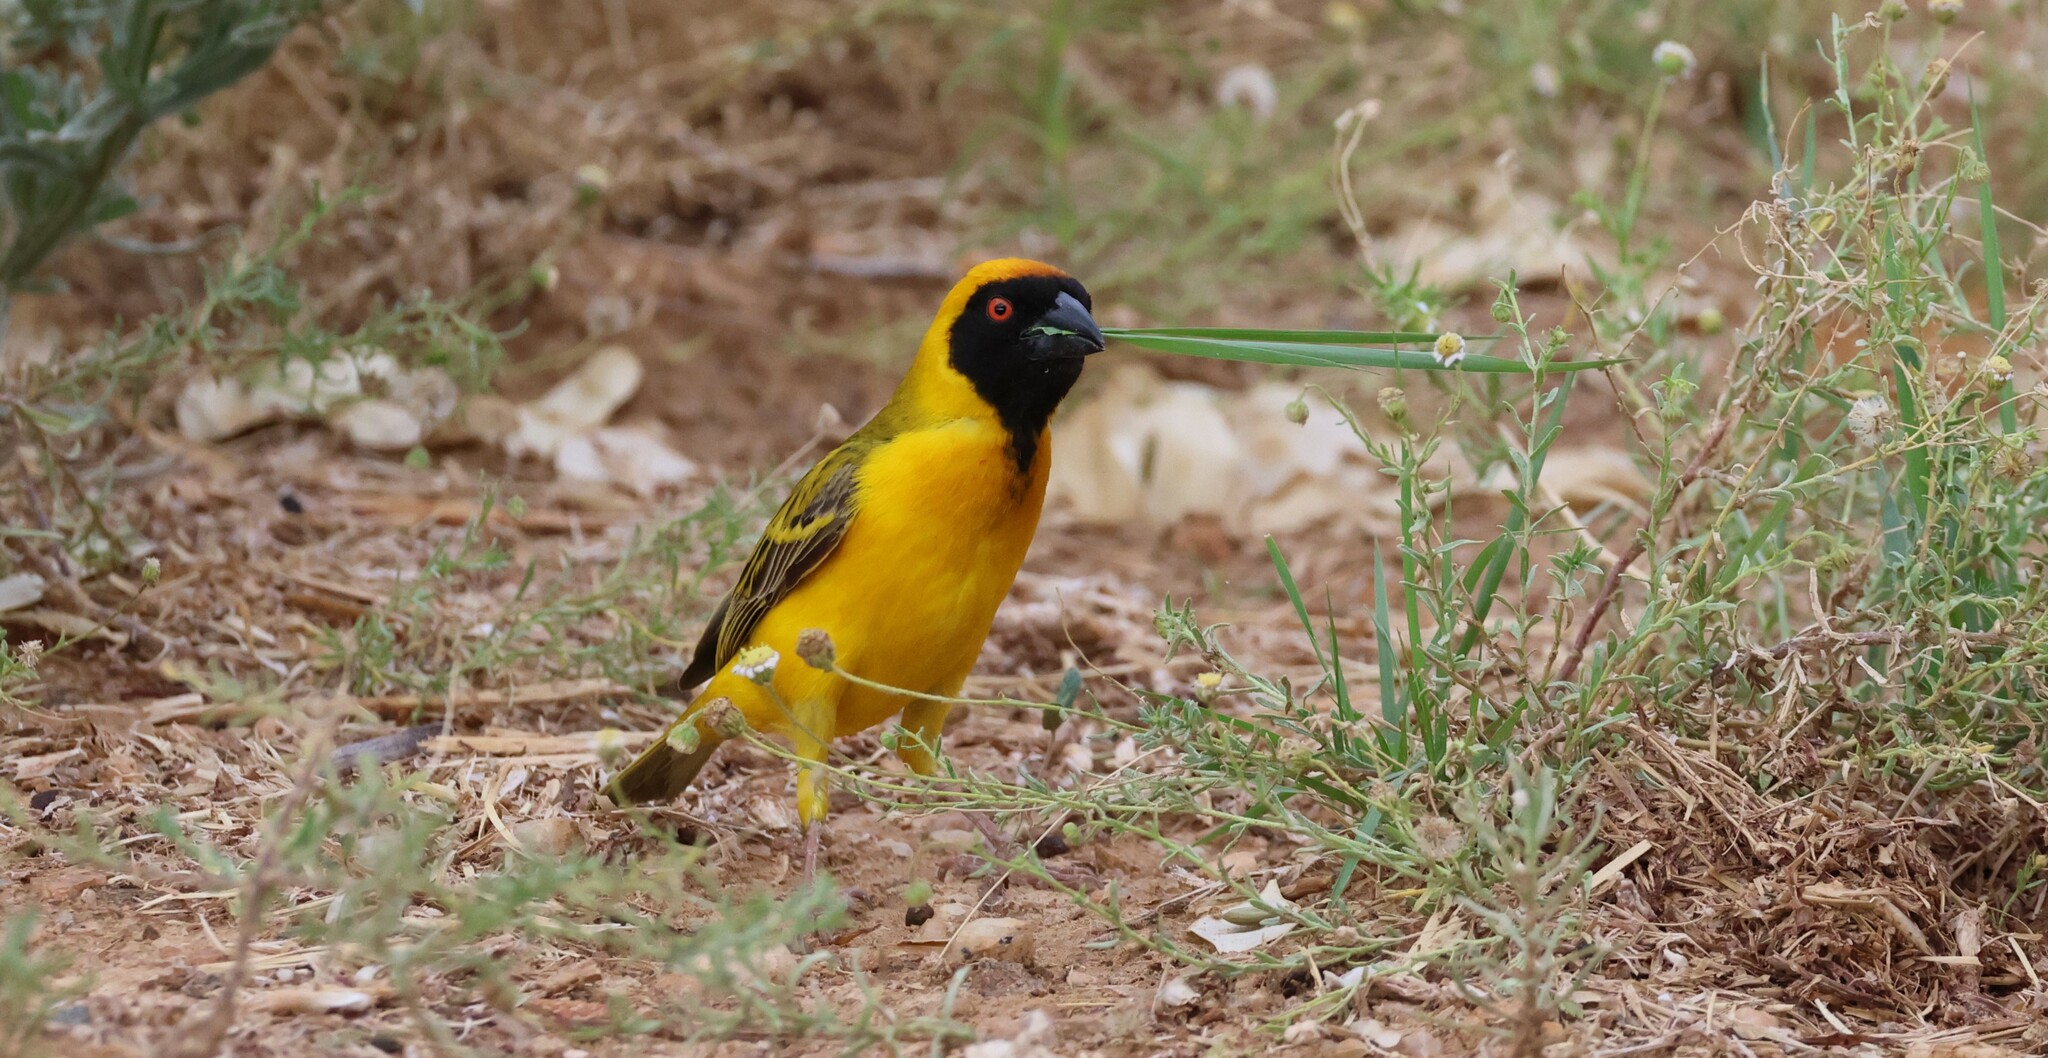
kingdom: Animalia
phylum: Chordata
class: Aves
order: Passeriformes
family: Ploceidae
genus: Ploceus
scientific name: Ploceus velatus
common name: Southern masked weaver
